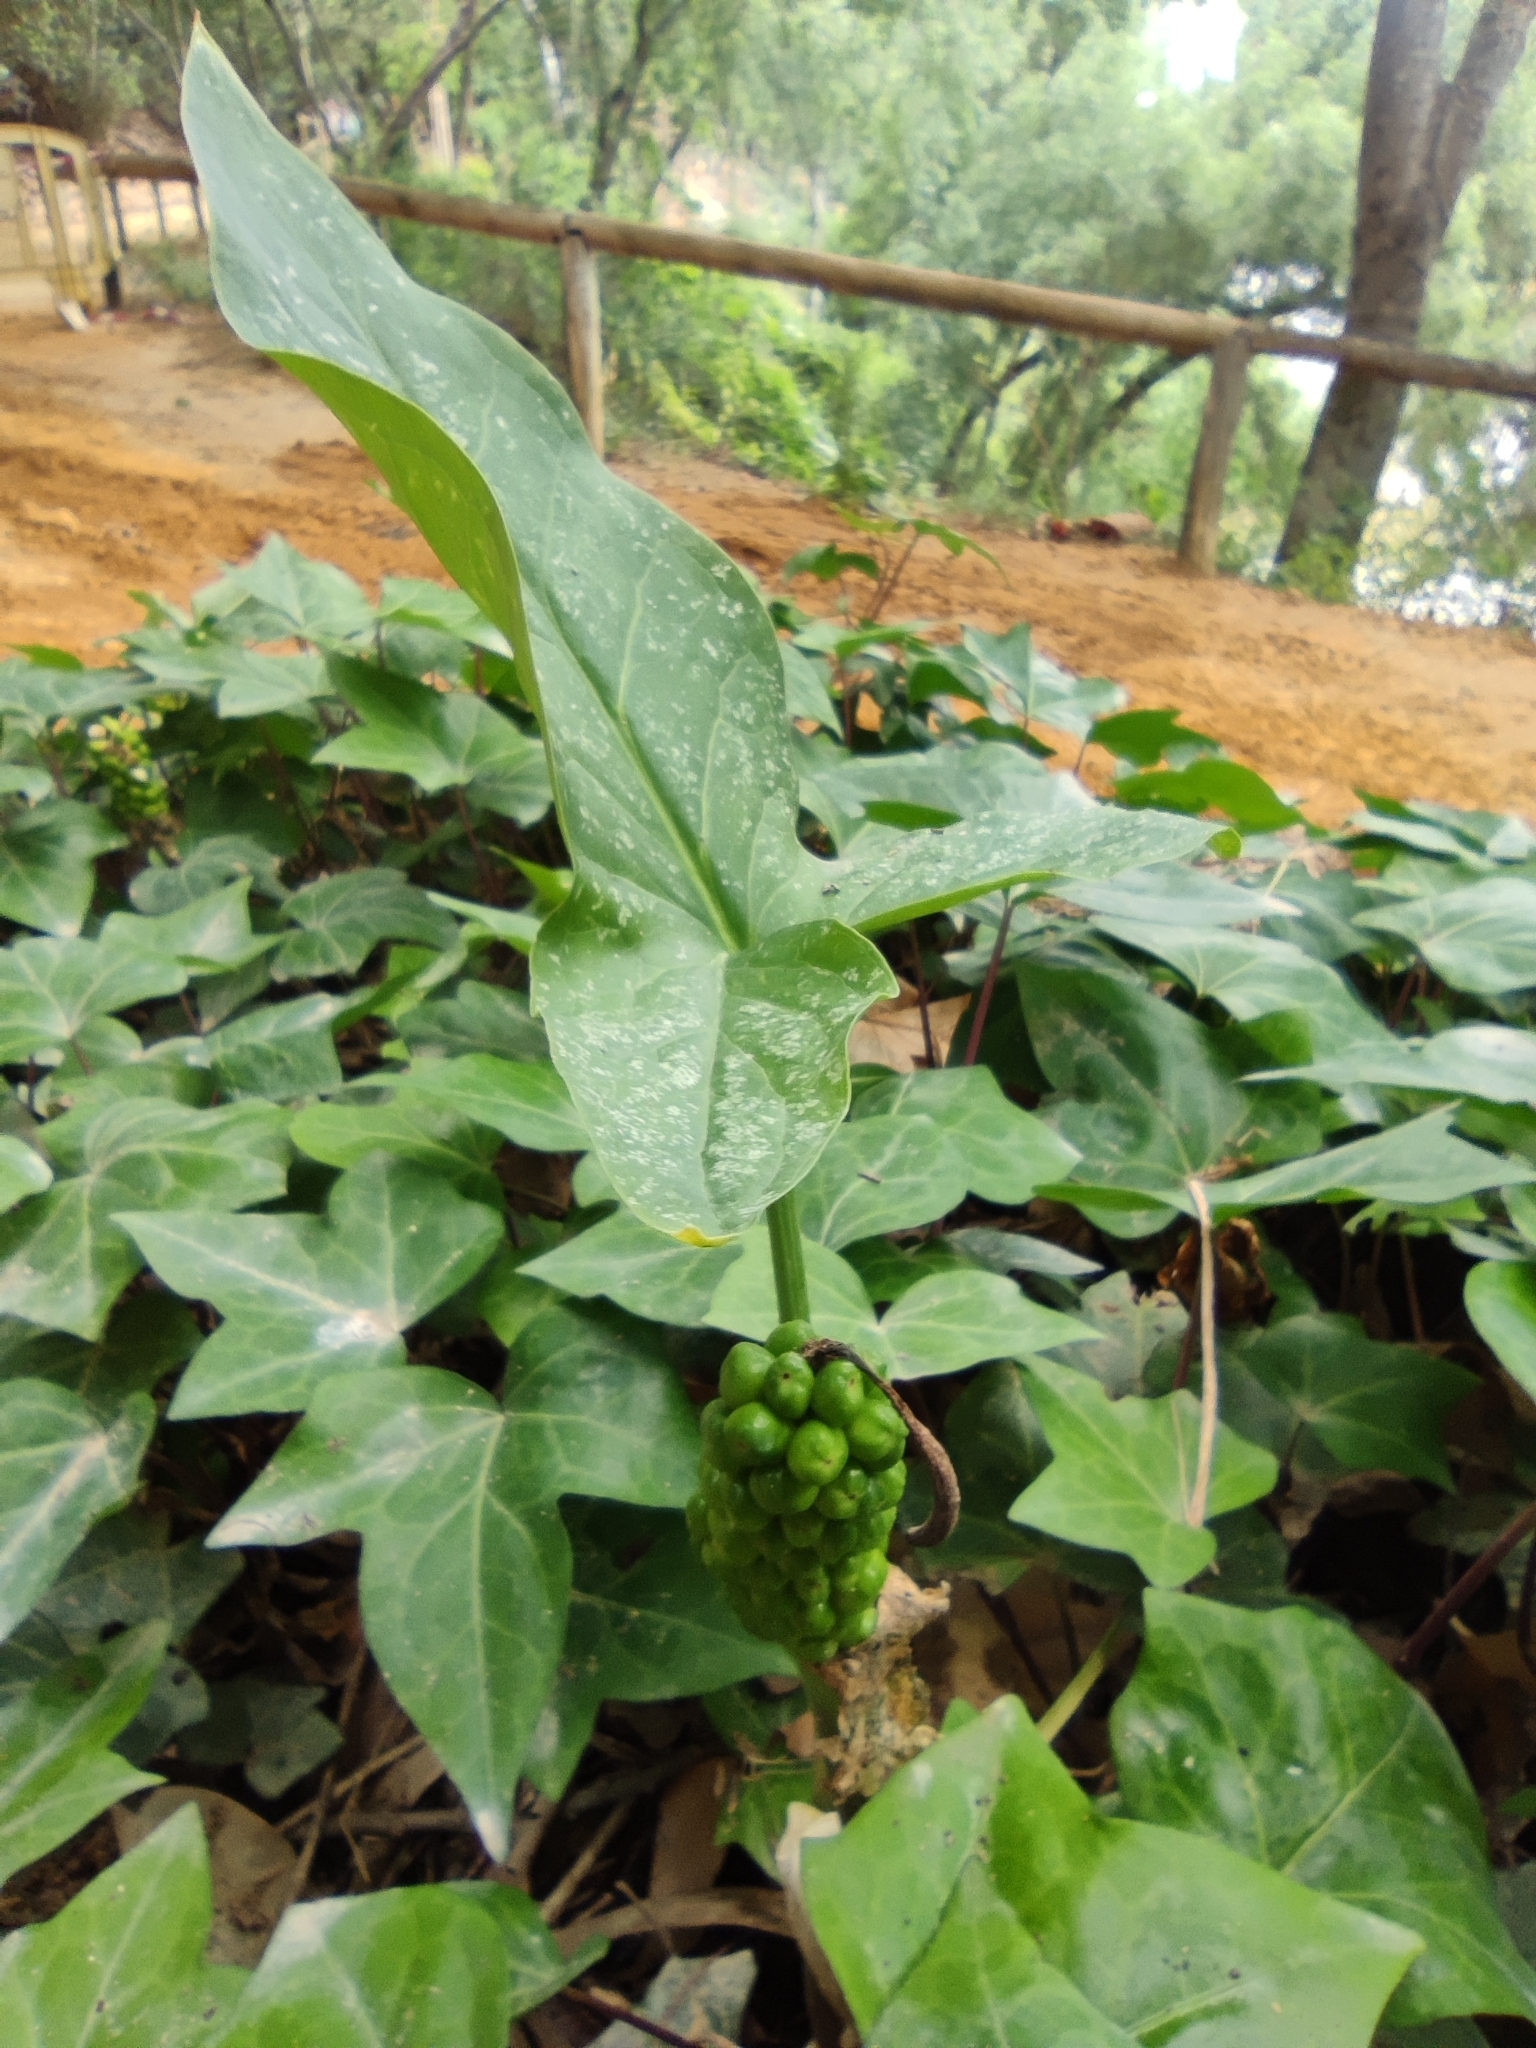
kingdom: Plantae
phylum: Tracheophyta
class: Liliopsida
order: Alismatales
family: Araceae
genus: Arum
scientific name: Arum italicum
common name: Italian lords-and-ladies
